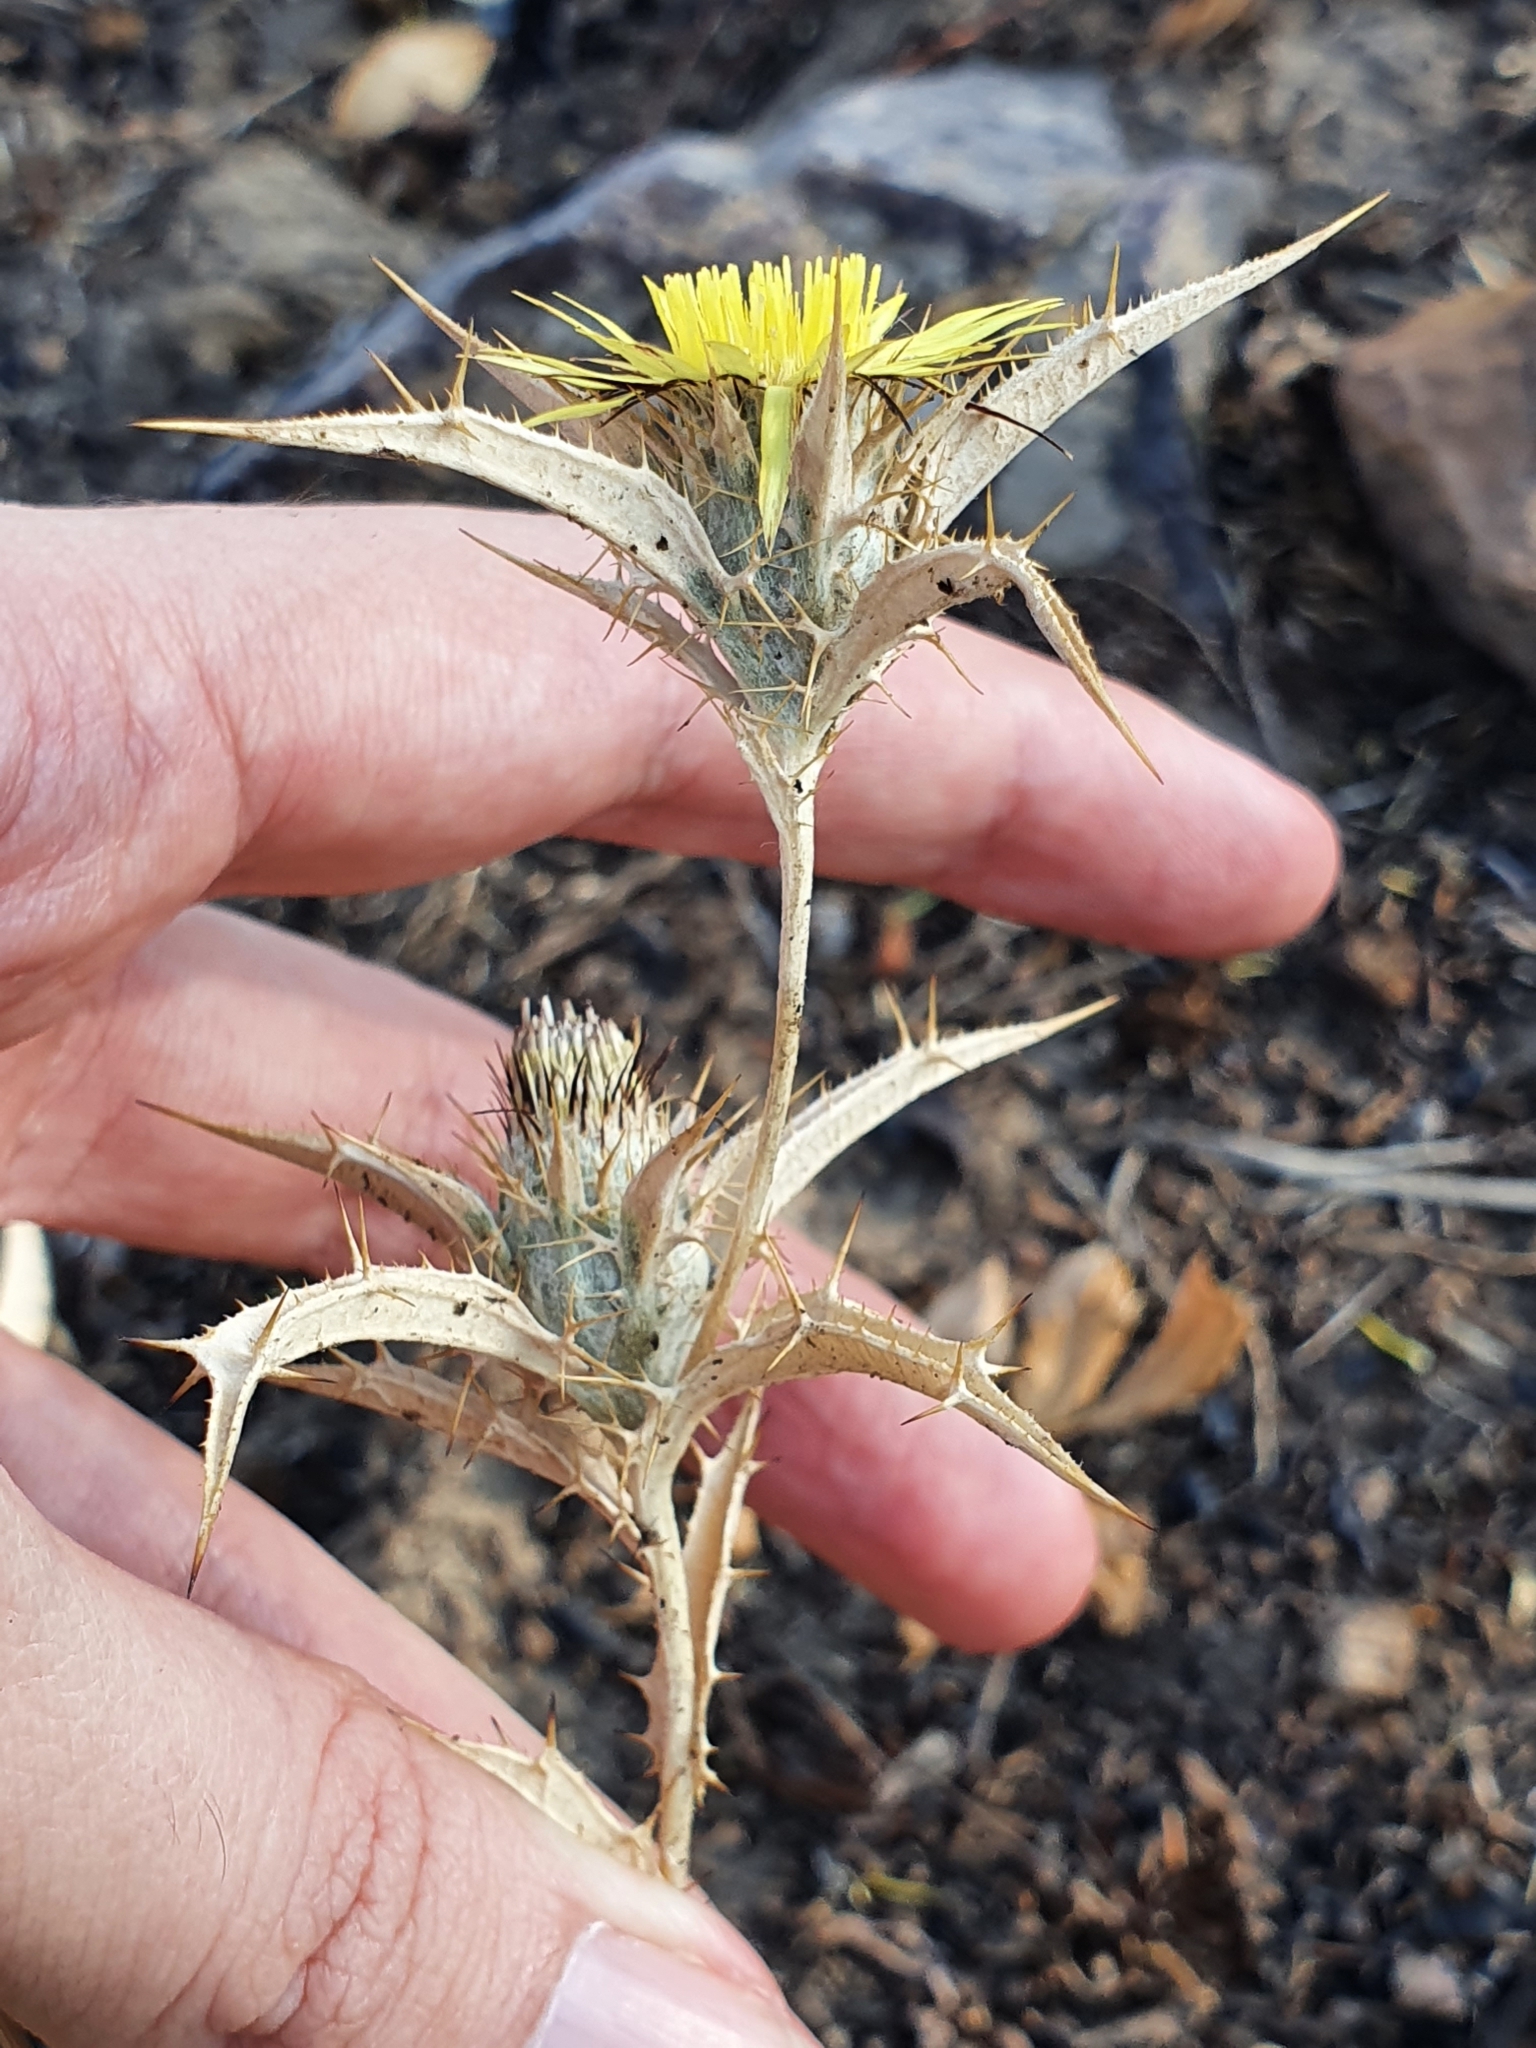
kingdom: Plantae
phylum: Tracheophyta
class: Magnoliopsida
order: Asterales
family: Asteraceae
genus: Carlina
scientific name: Carlina racemosa
